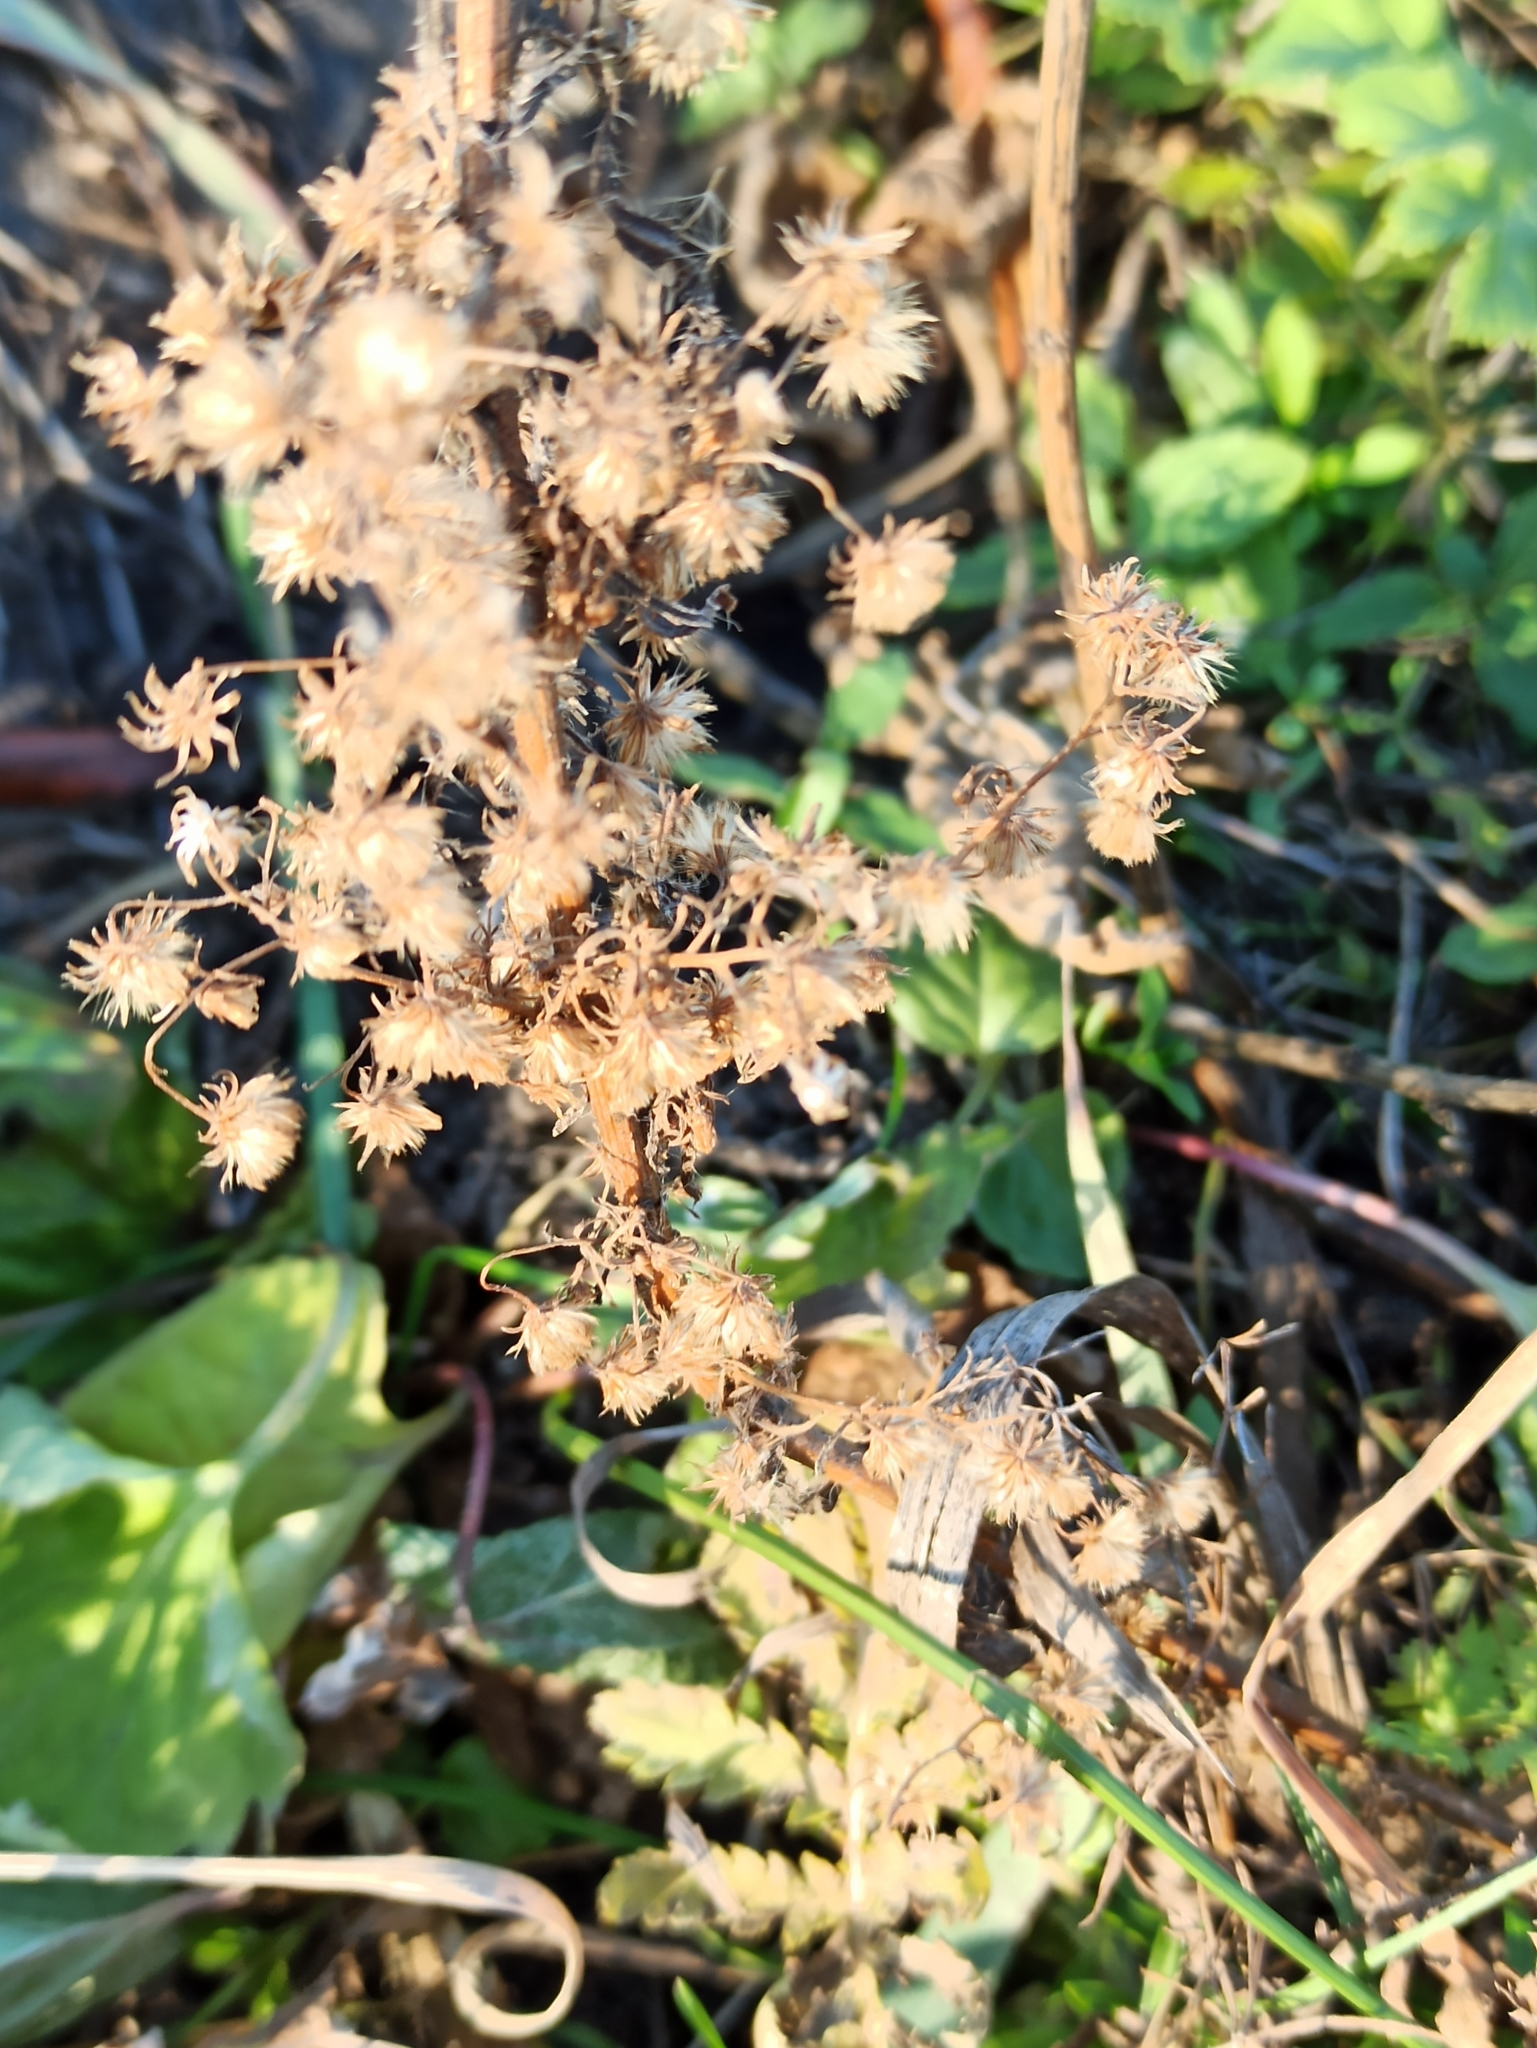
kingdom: Plantae
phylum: Tracheophyta
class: Magnoliopsida
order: Asterales
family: Asteraceae
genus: Erigeron
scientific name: Erigeron canadensis
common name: Canadian fleabane
